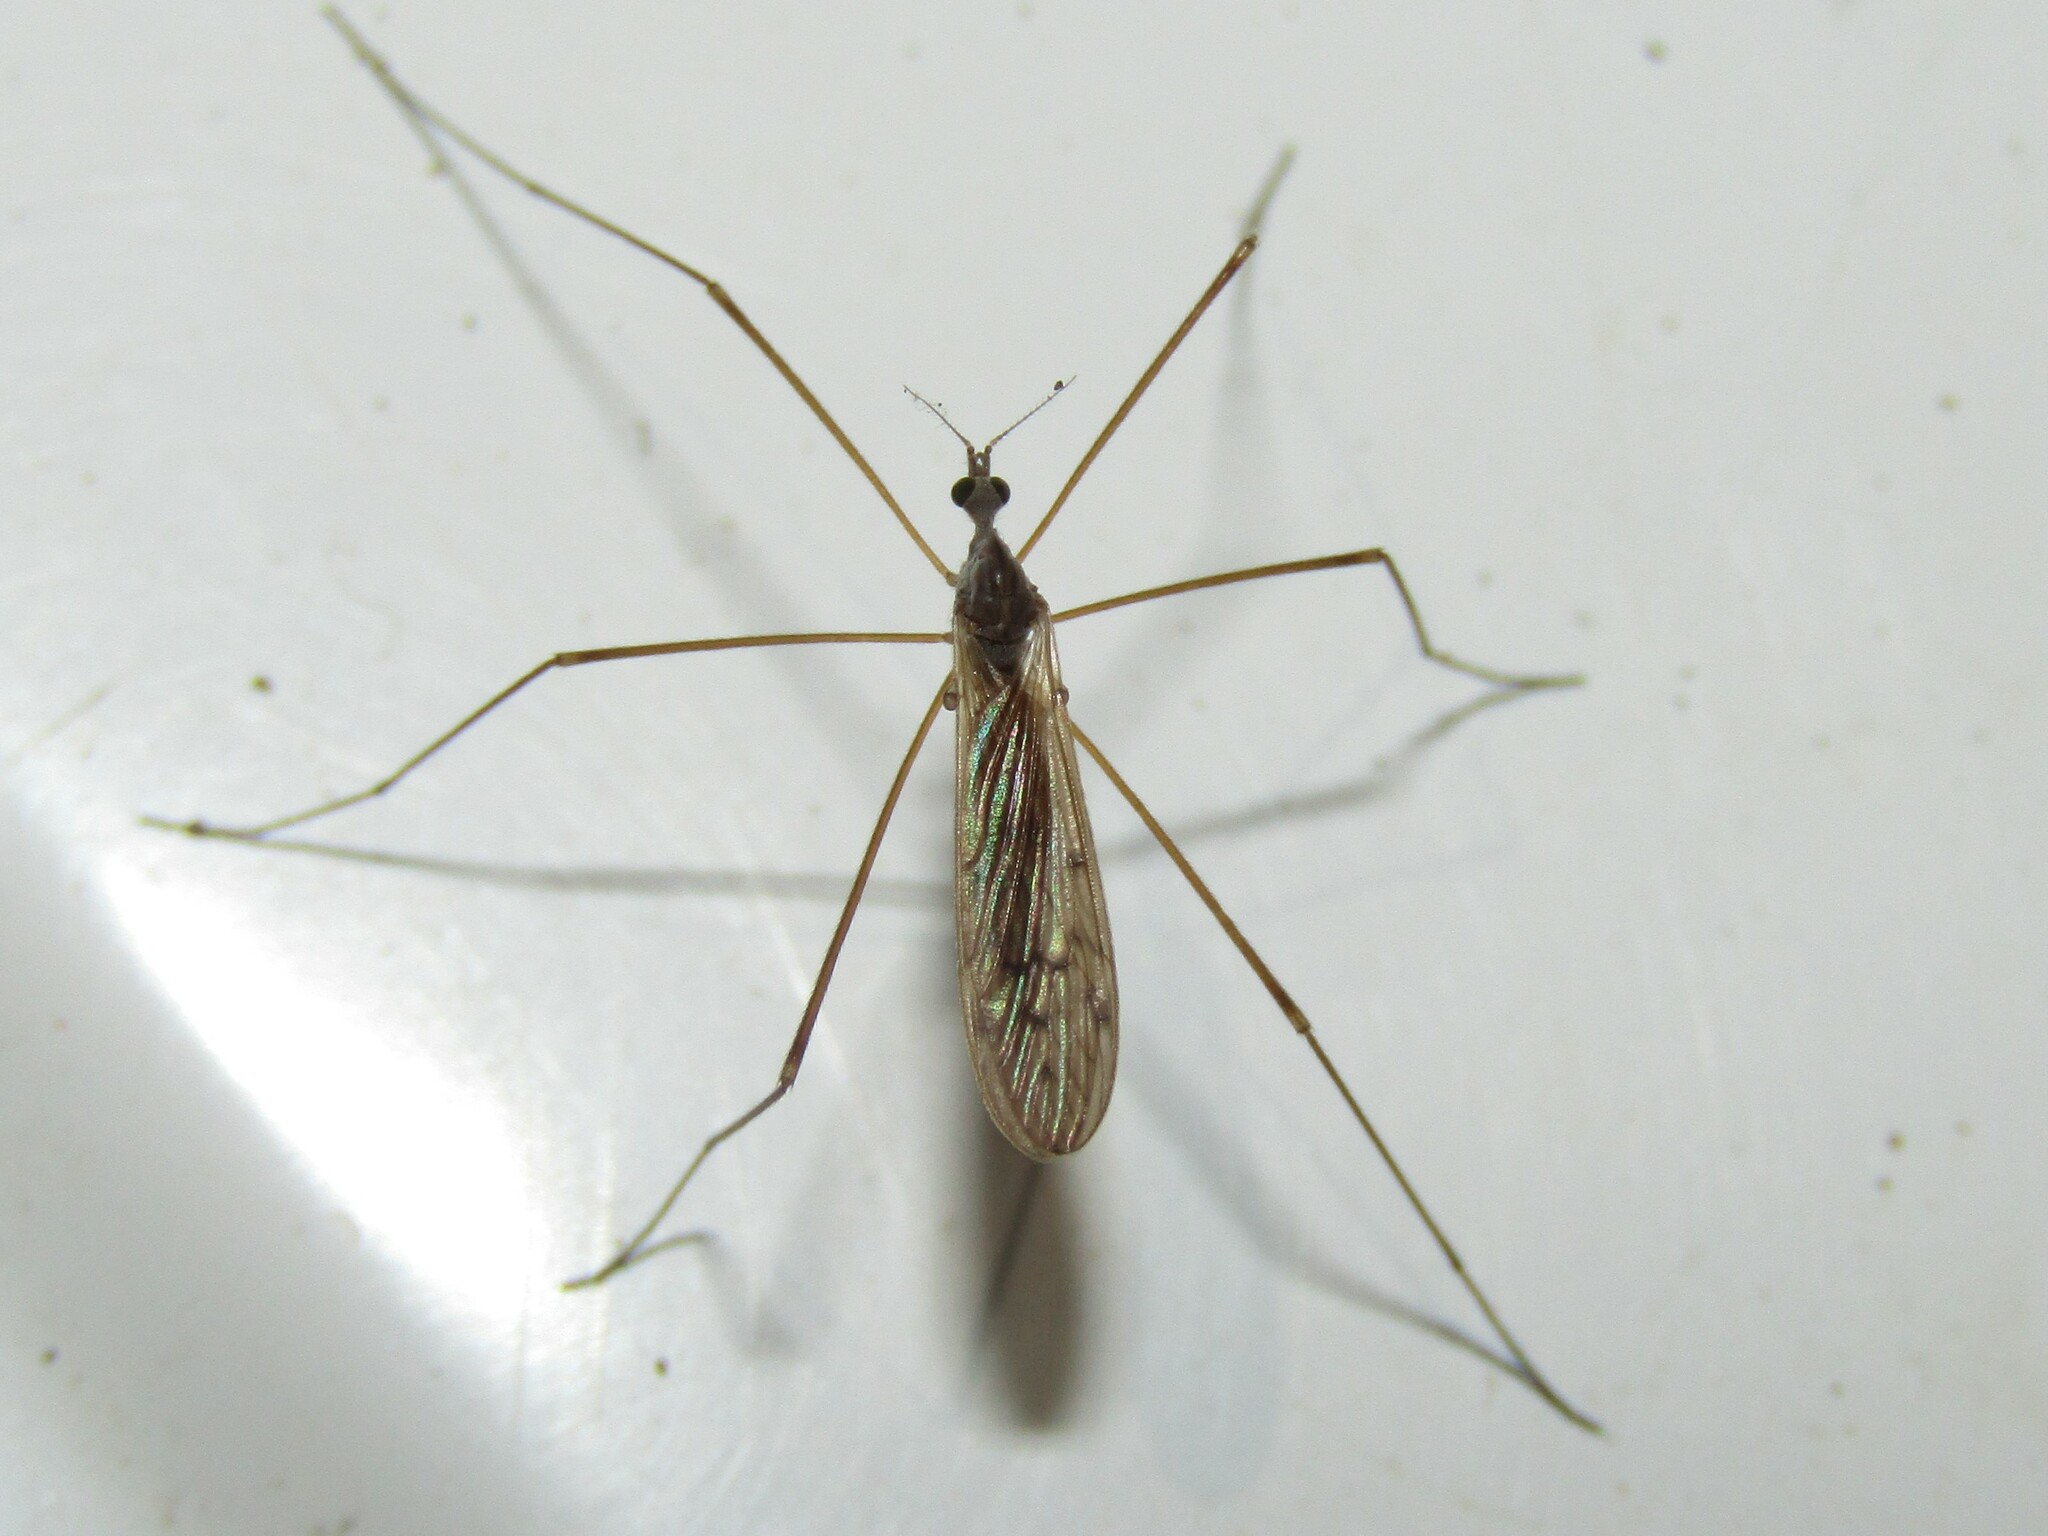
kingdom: Animalia
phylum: Arthropoda
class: Insecta
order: Diptera
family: Limoniidae
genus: Pseudolimnophila
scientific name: Pseudolimnophila luteipennis
